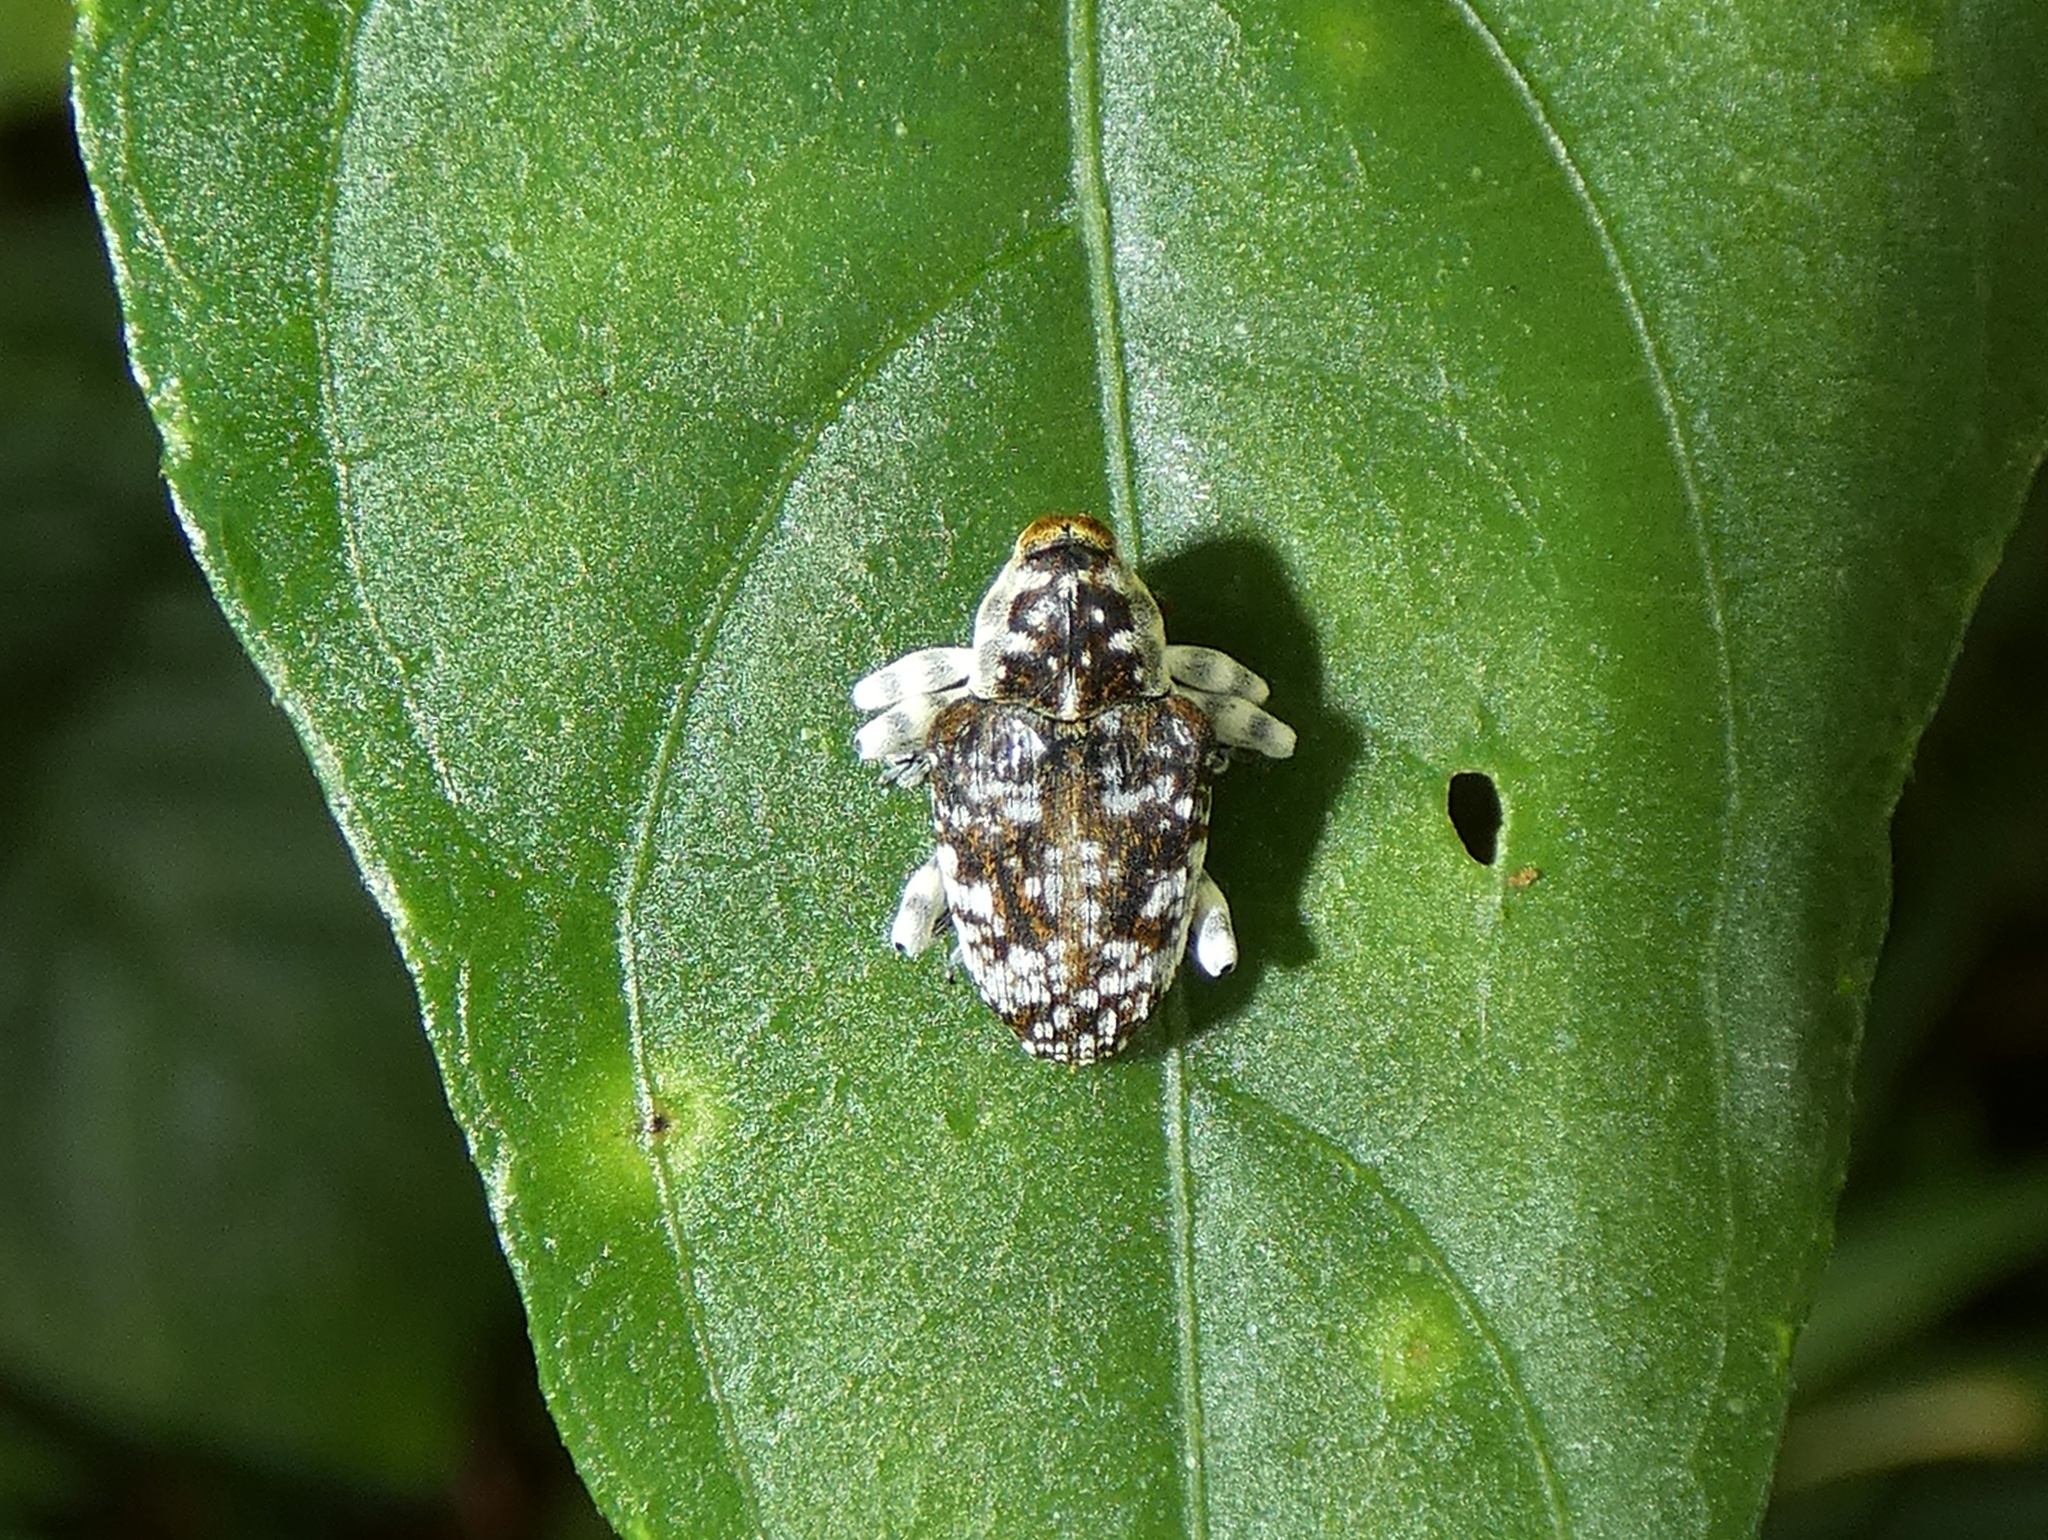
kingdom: Animalia
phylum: Arthropoda
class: Insecta
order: Coleoptera
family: Curculionidae
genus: Peridinetus
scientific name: Peridinetus irroratus
